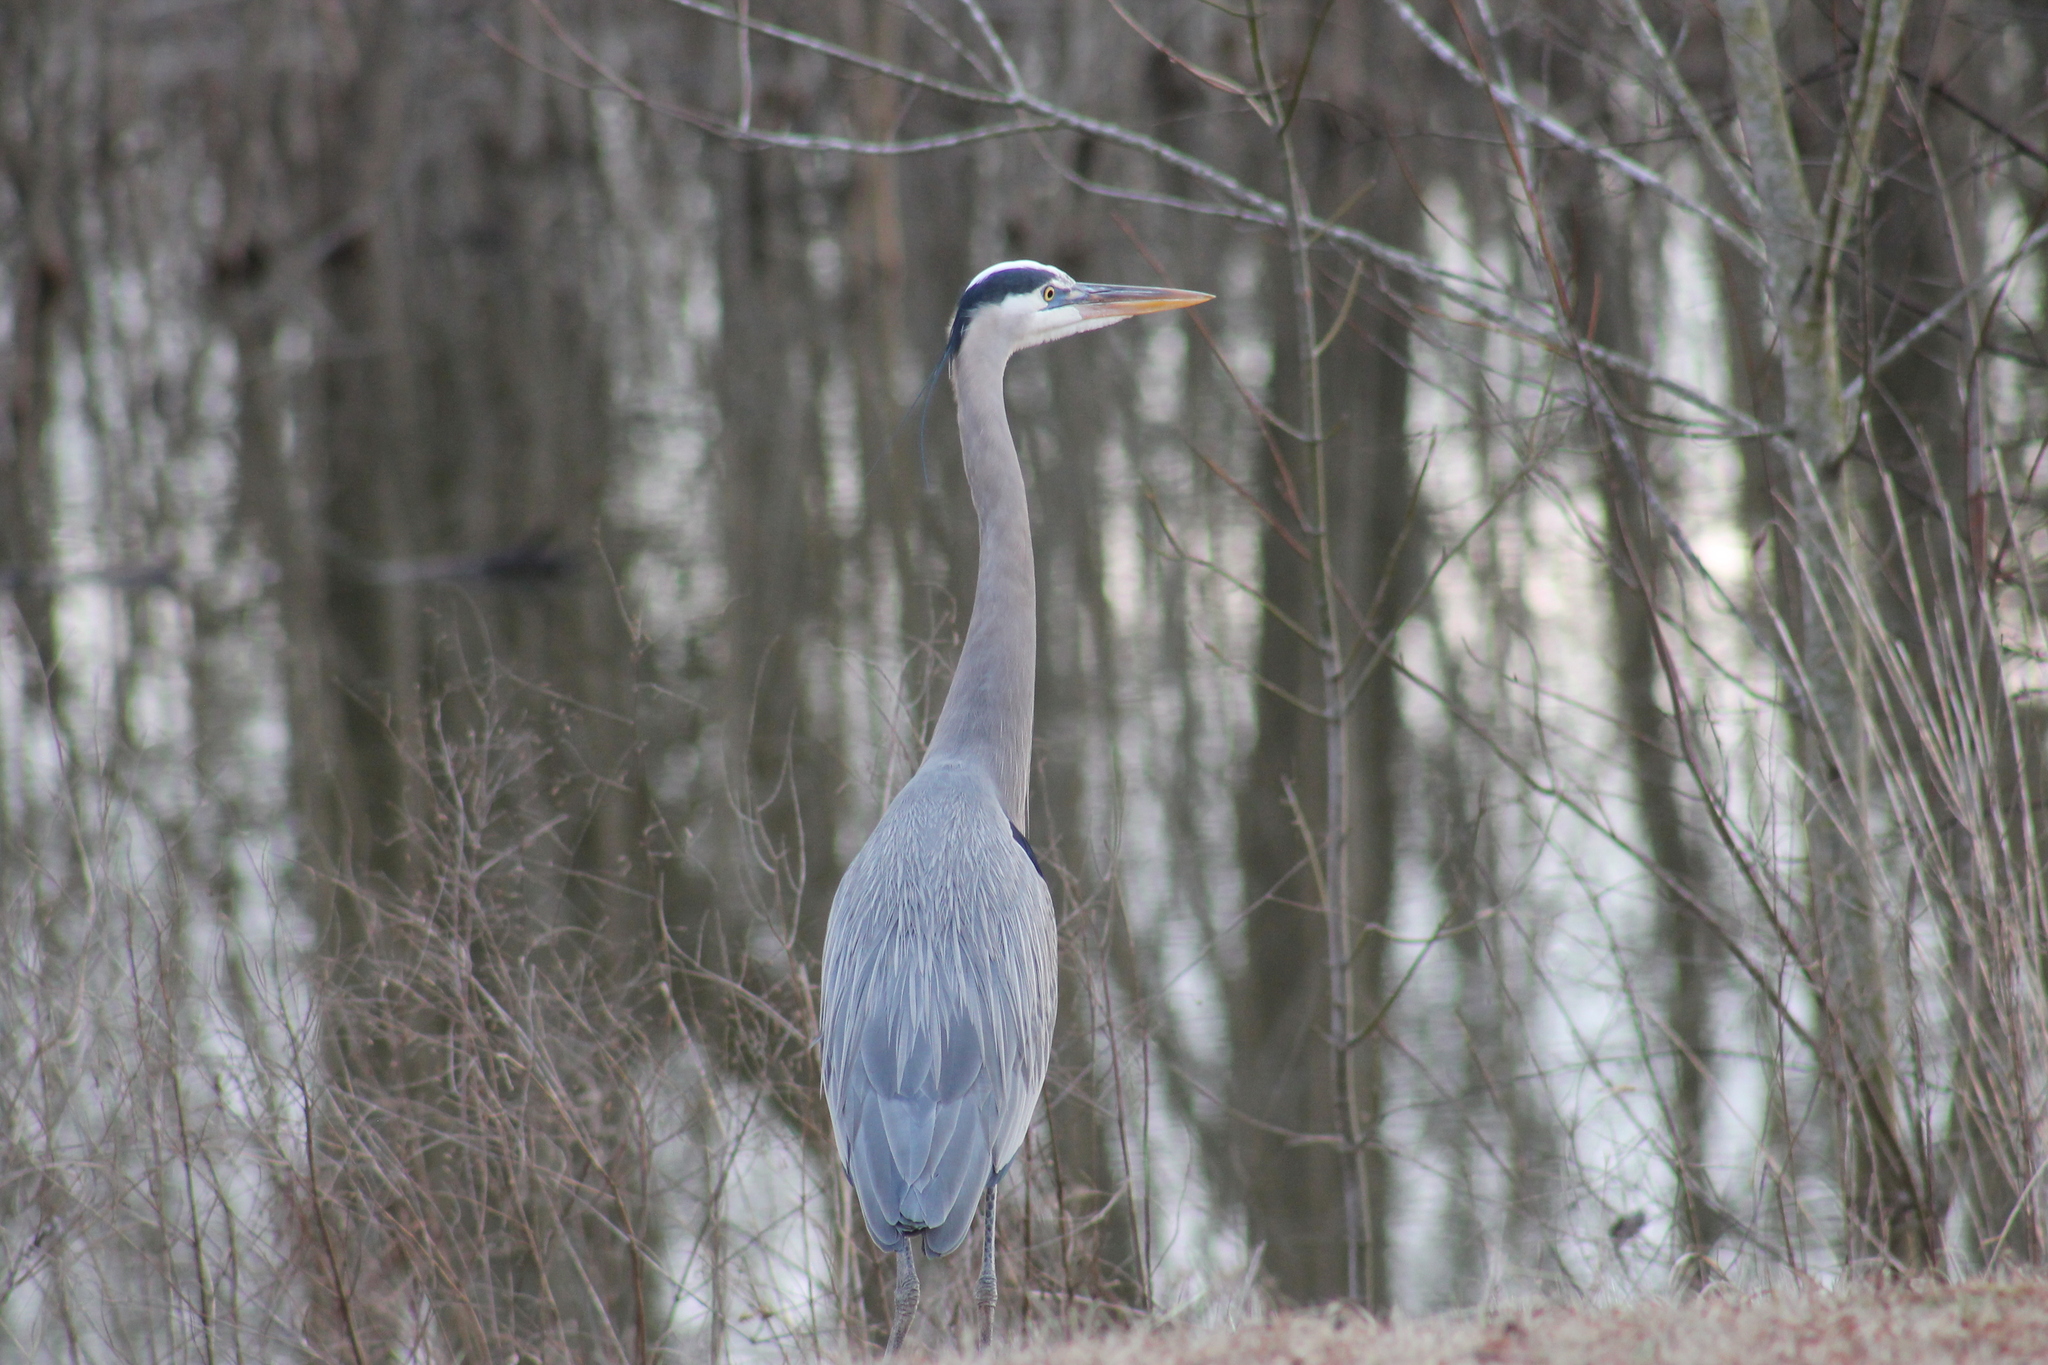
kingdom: Animalia
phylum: Chordata
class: Aves
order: Pelecaniformes
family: Ardeidae
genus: Ardea
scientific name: Ardea herodias
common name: Great blue heron
